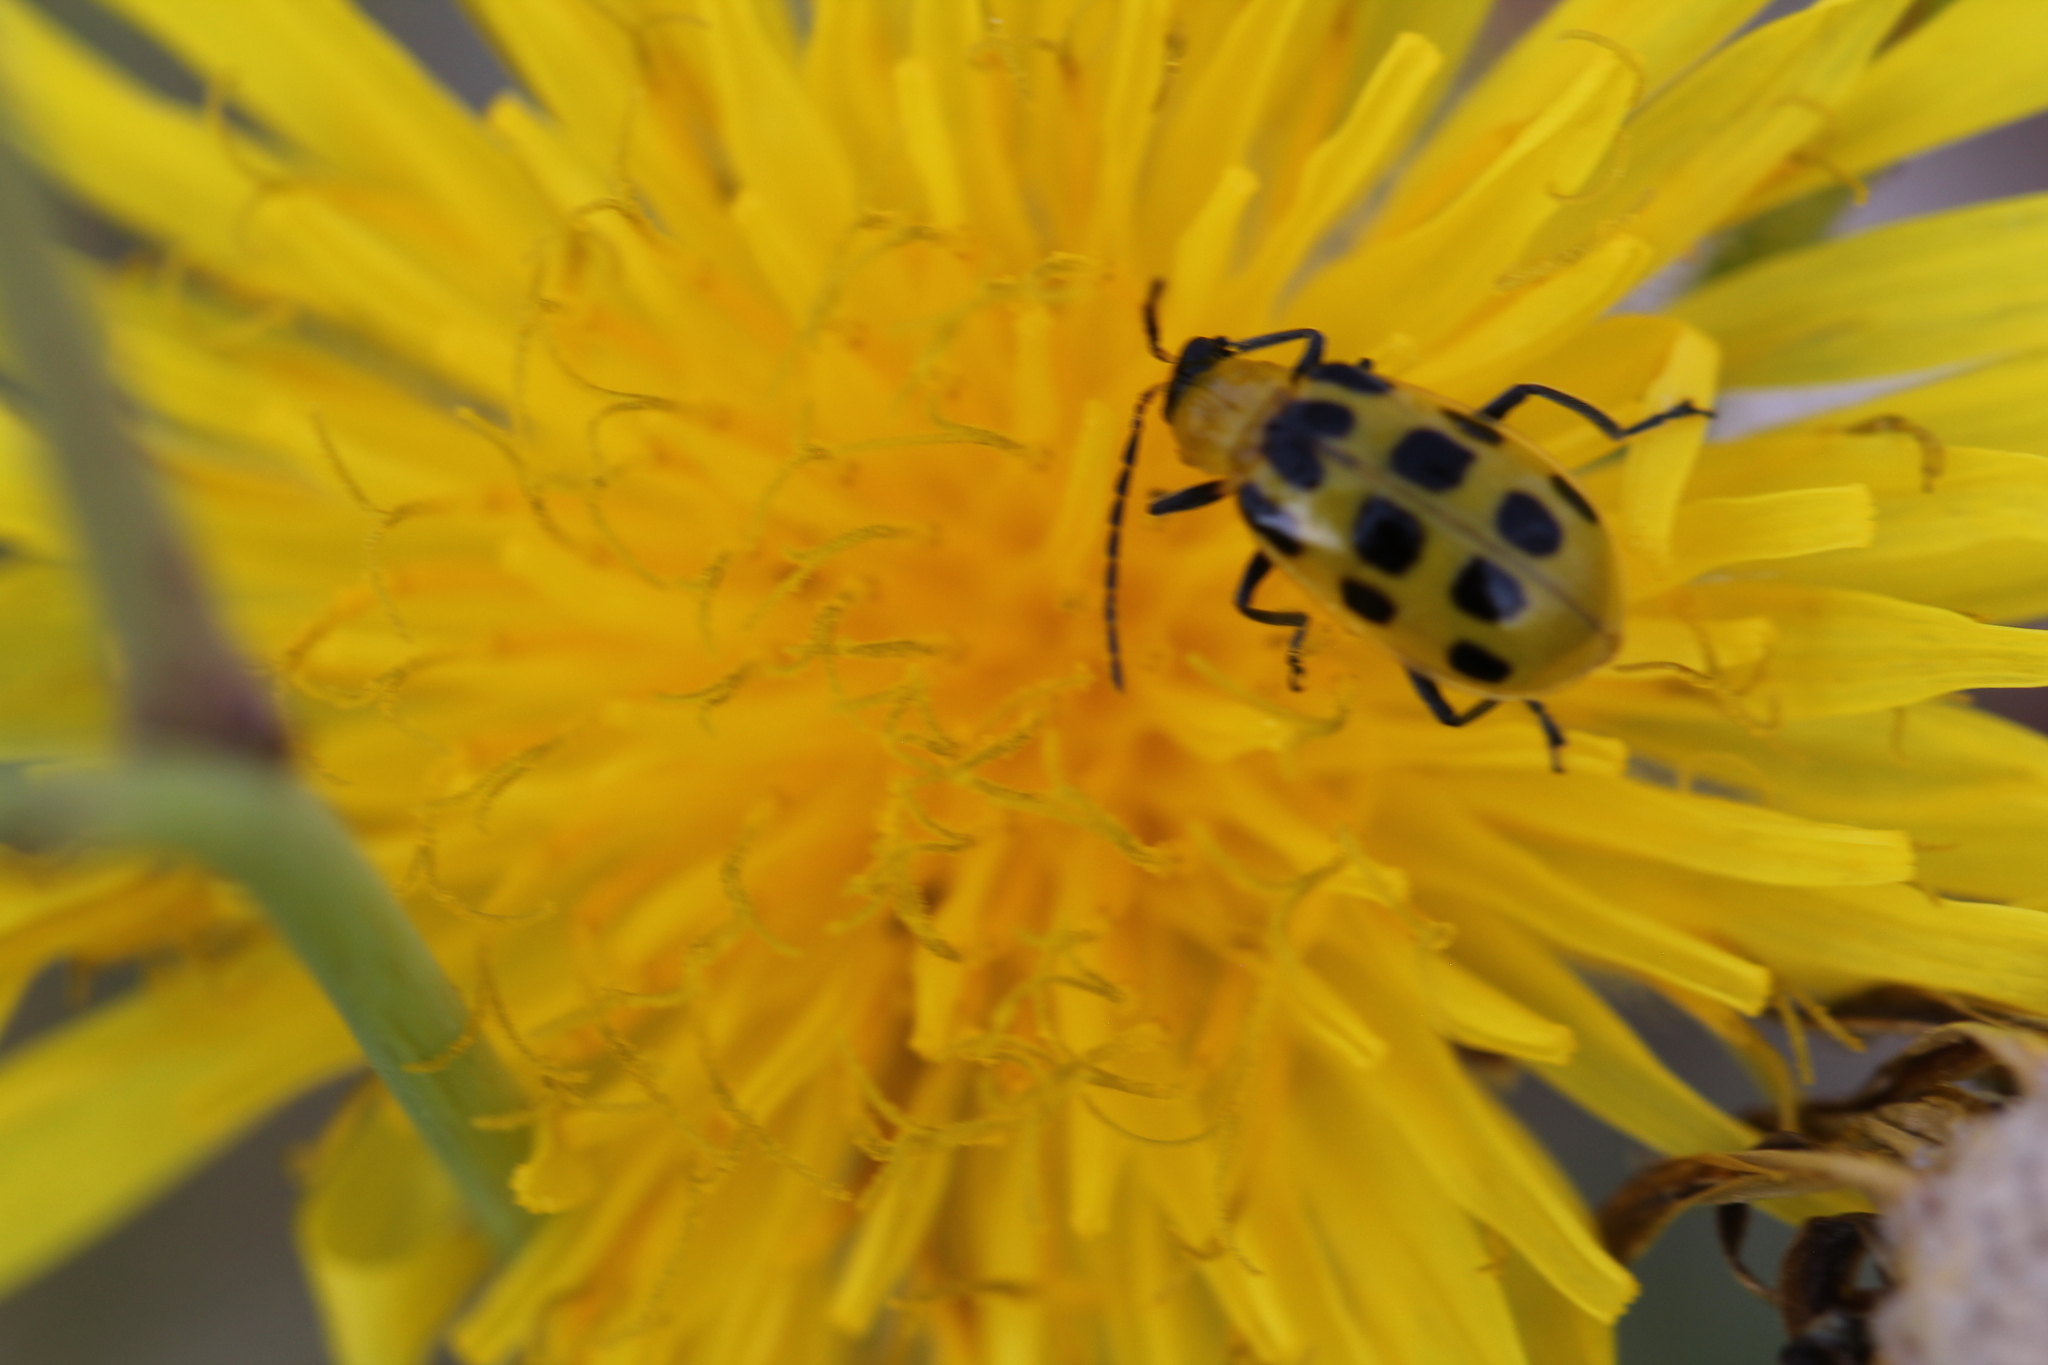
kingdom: Animalia
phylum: Arthropoda
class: Insecta
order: Coleoptera
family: Chrysomelidae
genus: Diabrotica
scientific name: Diabrotica undecimpunctata
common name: Spotted cucumber beetle
